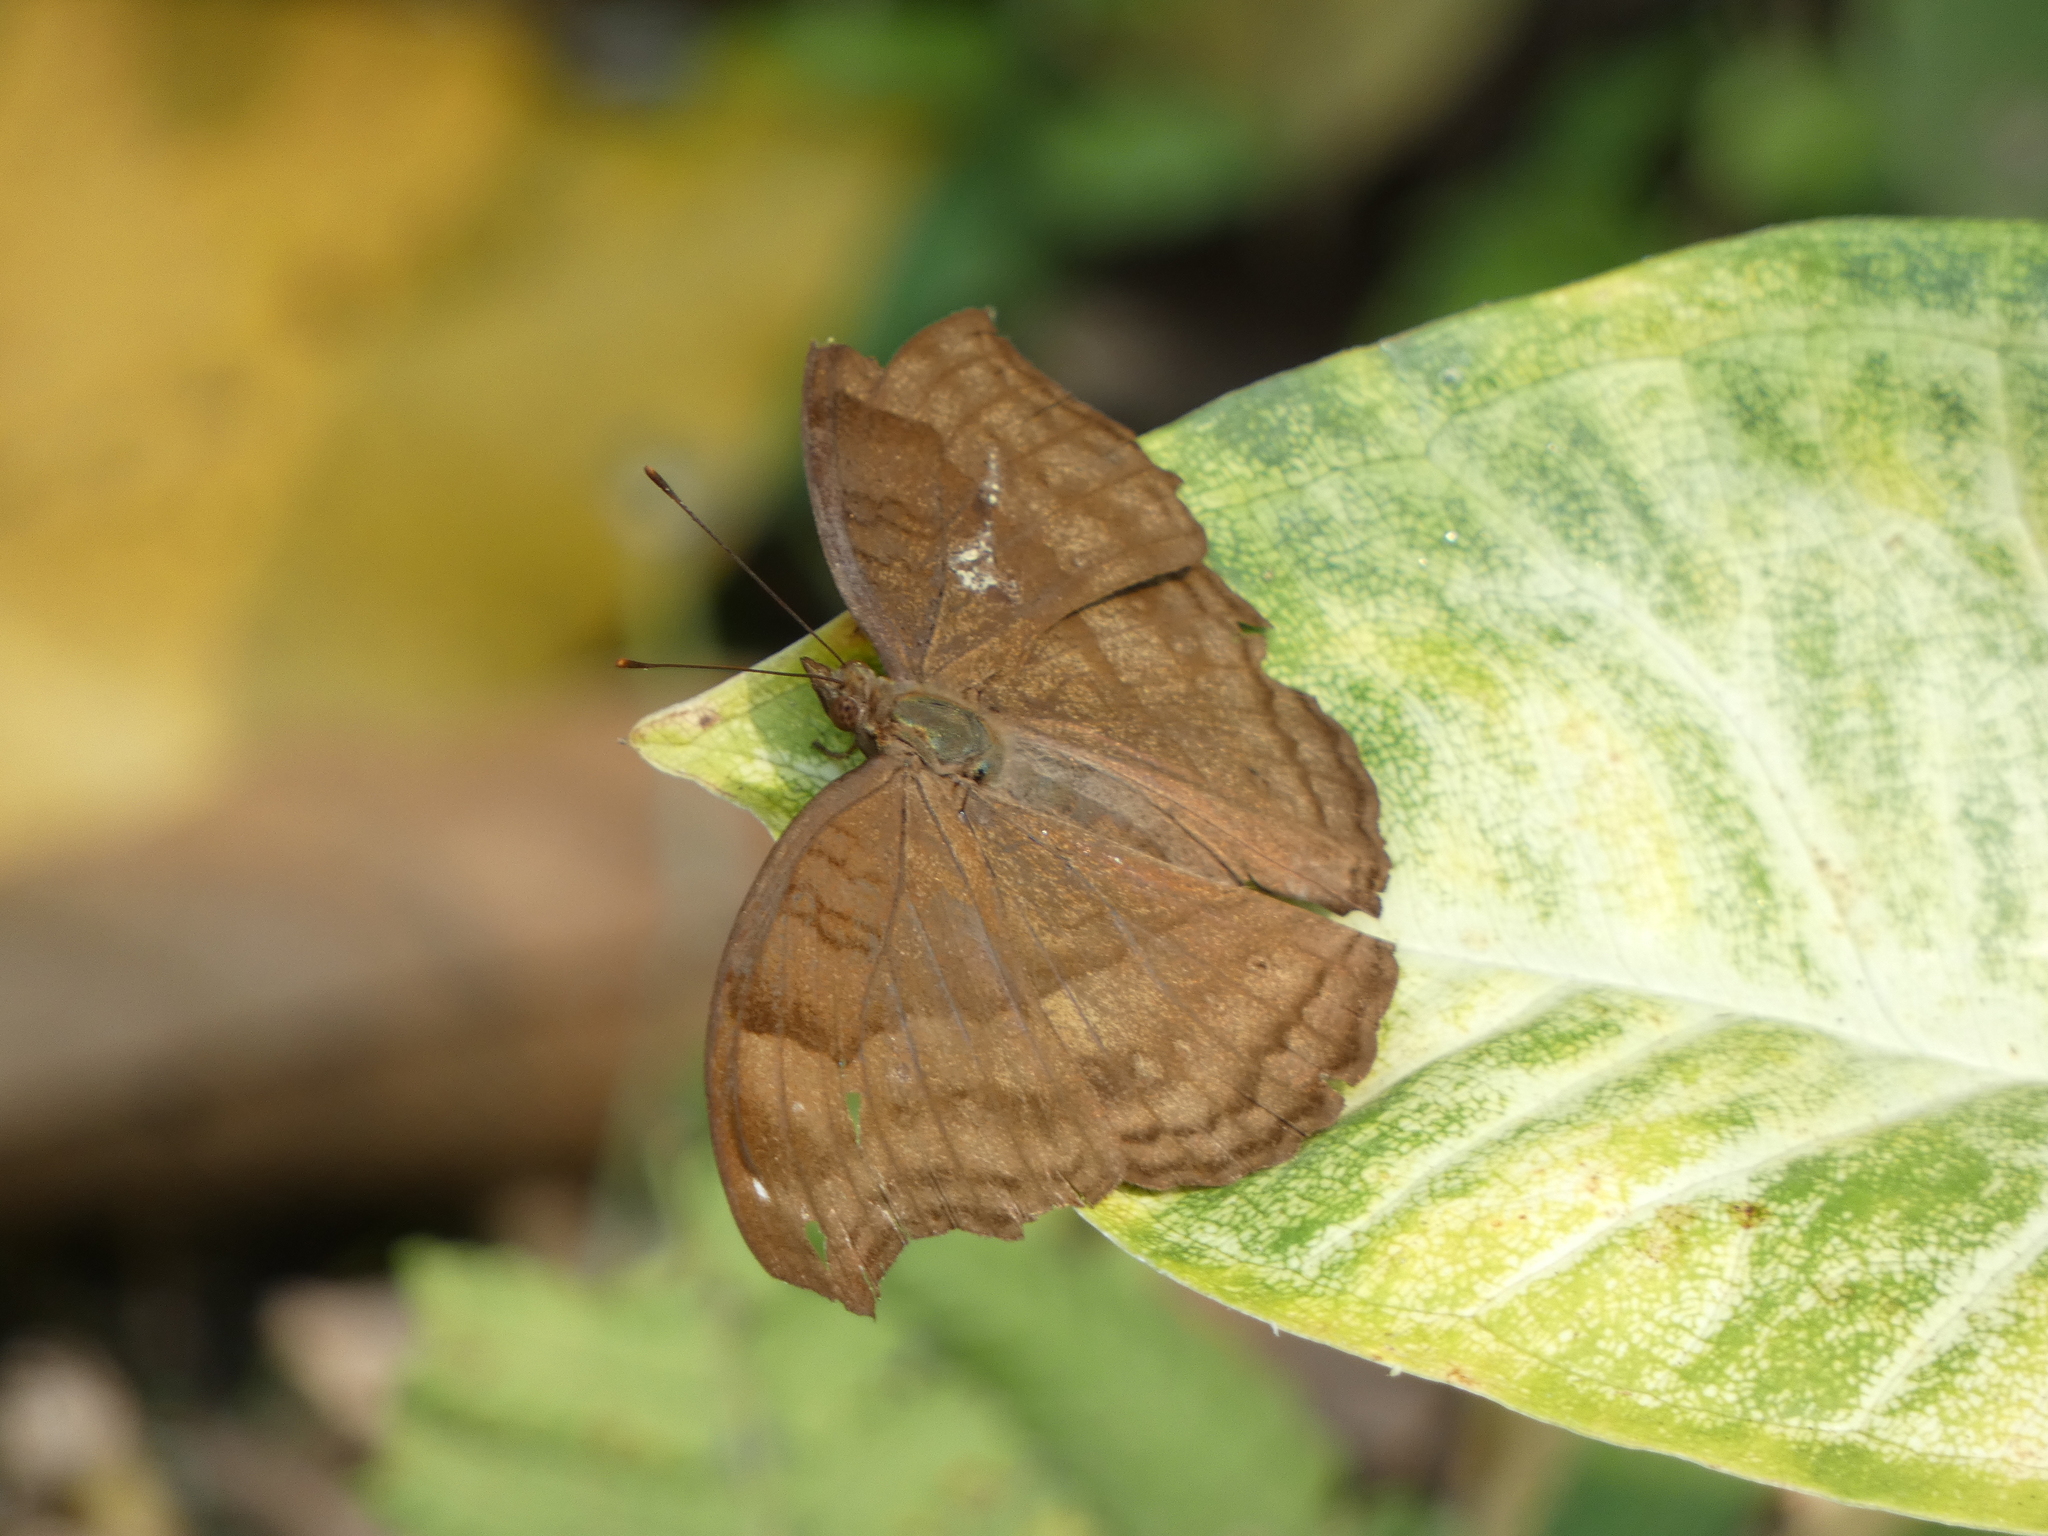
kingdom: Animalia
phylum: Arthropoda
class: Insecta
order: Lepidoptera
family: Nymphalidae
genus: Junonia
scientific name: Junonia iphita
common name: Chocolate pansy
